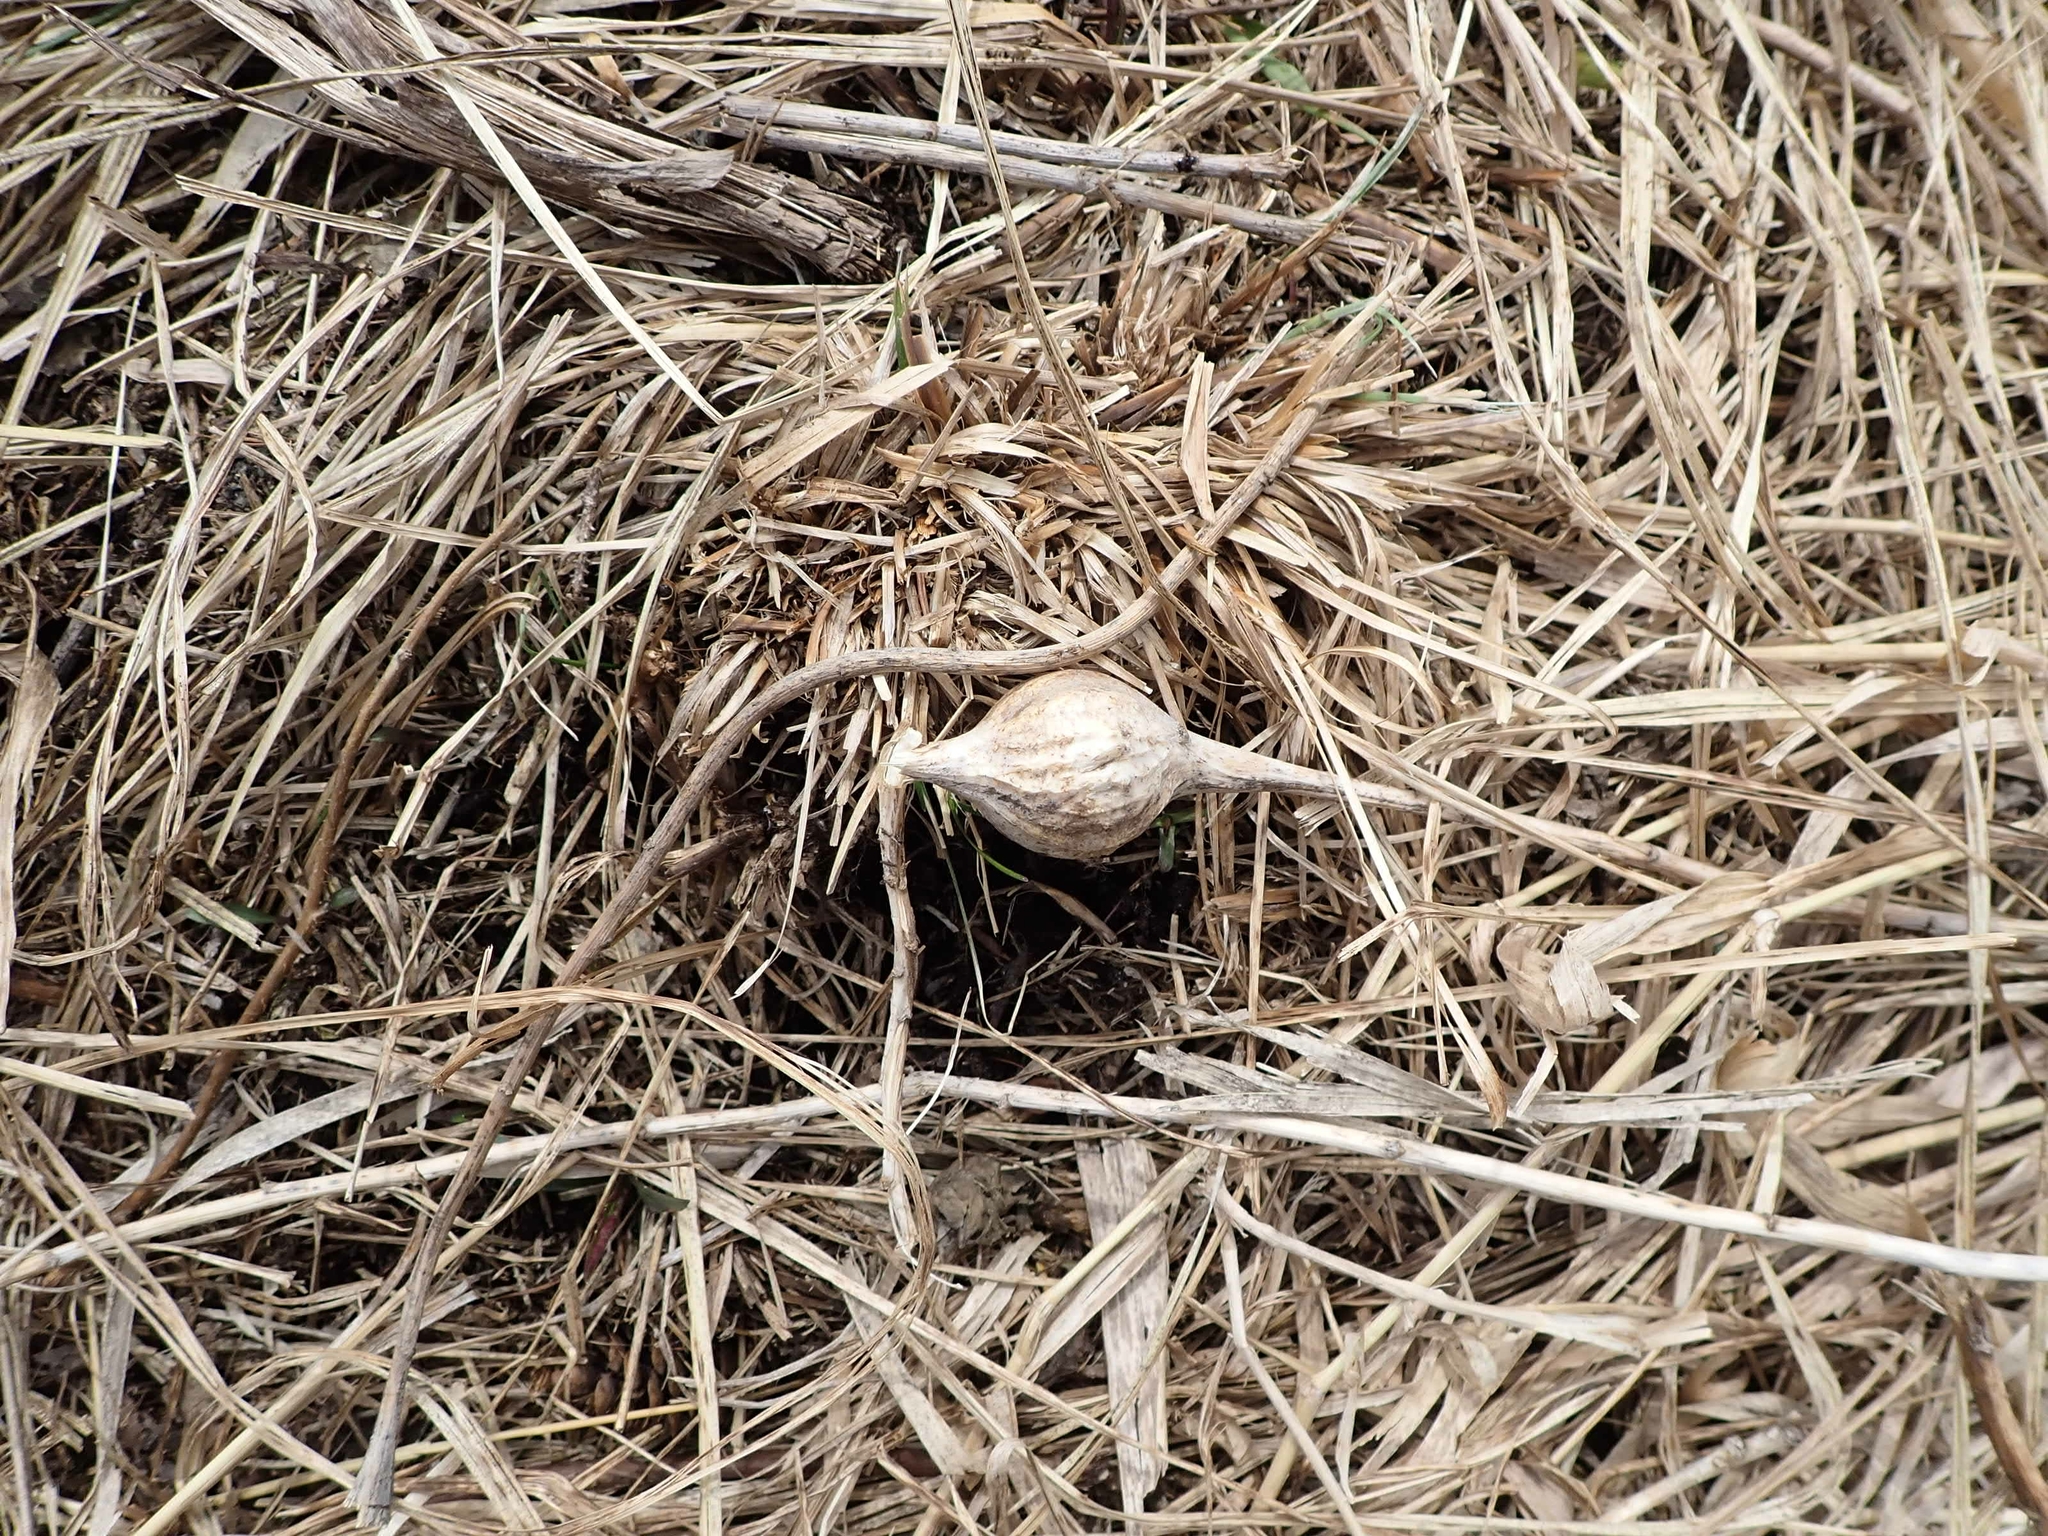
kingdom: Animalia
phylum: Arthropoda
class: Insecta
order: Diptera
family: Tephritidae
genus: Eurosta
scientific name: Eurosta solidaginis
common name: Goldenrod gall fly
